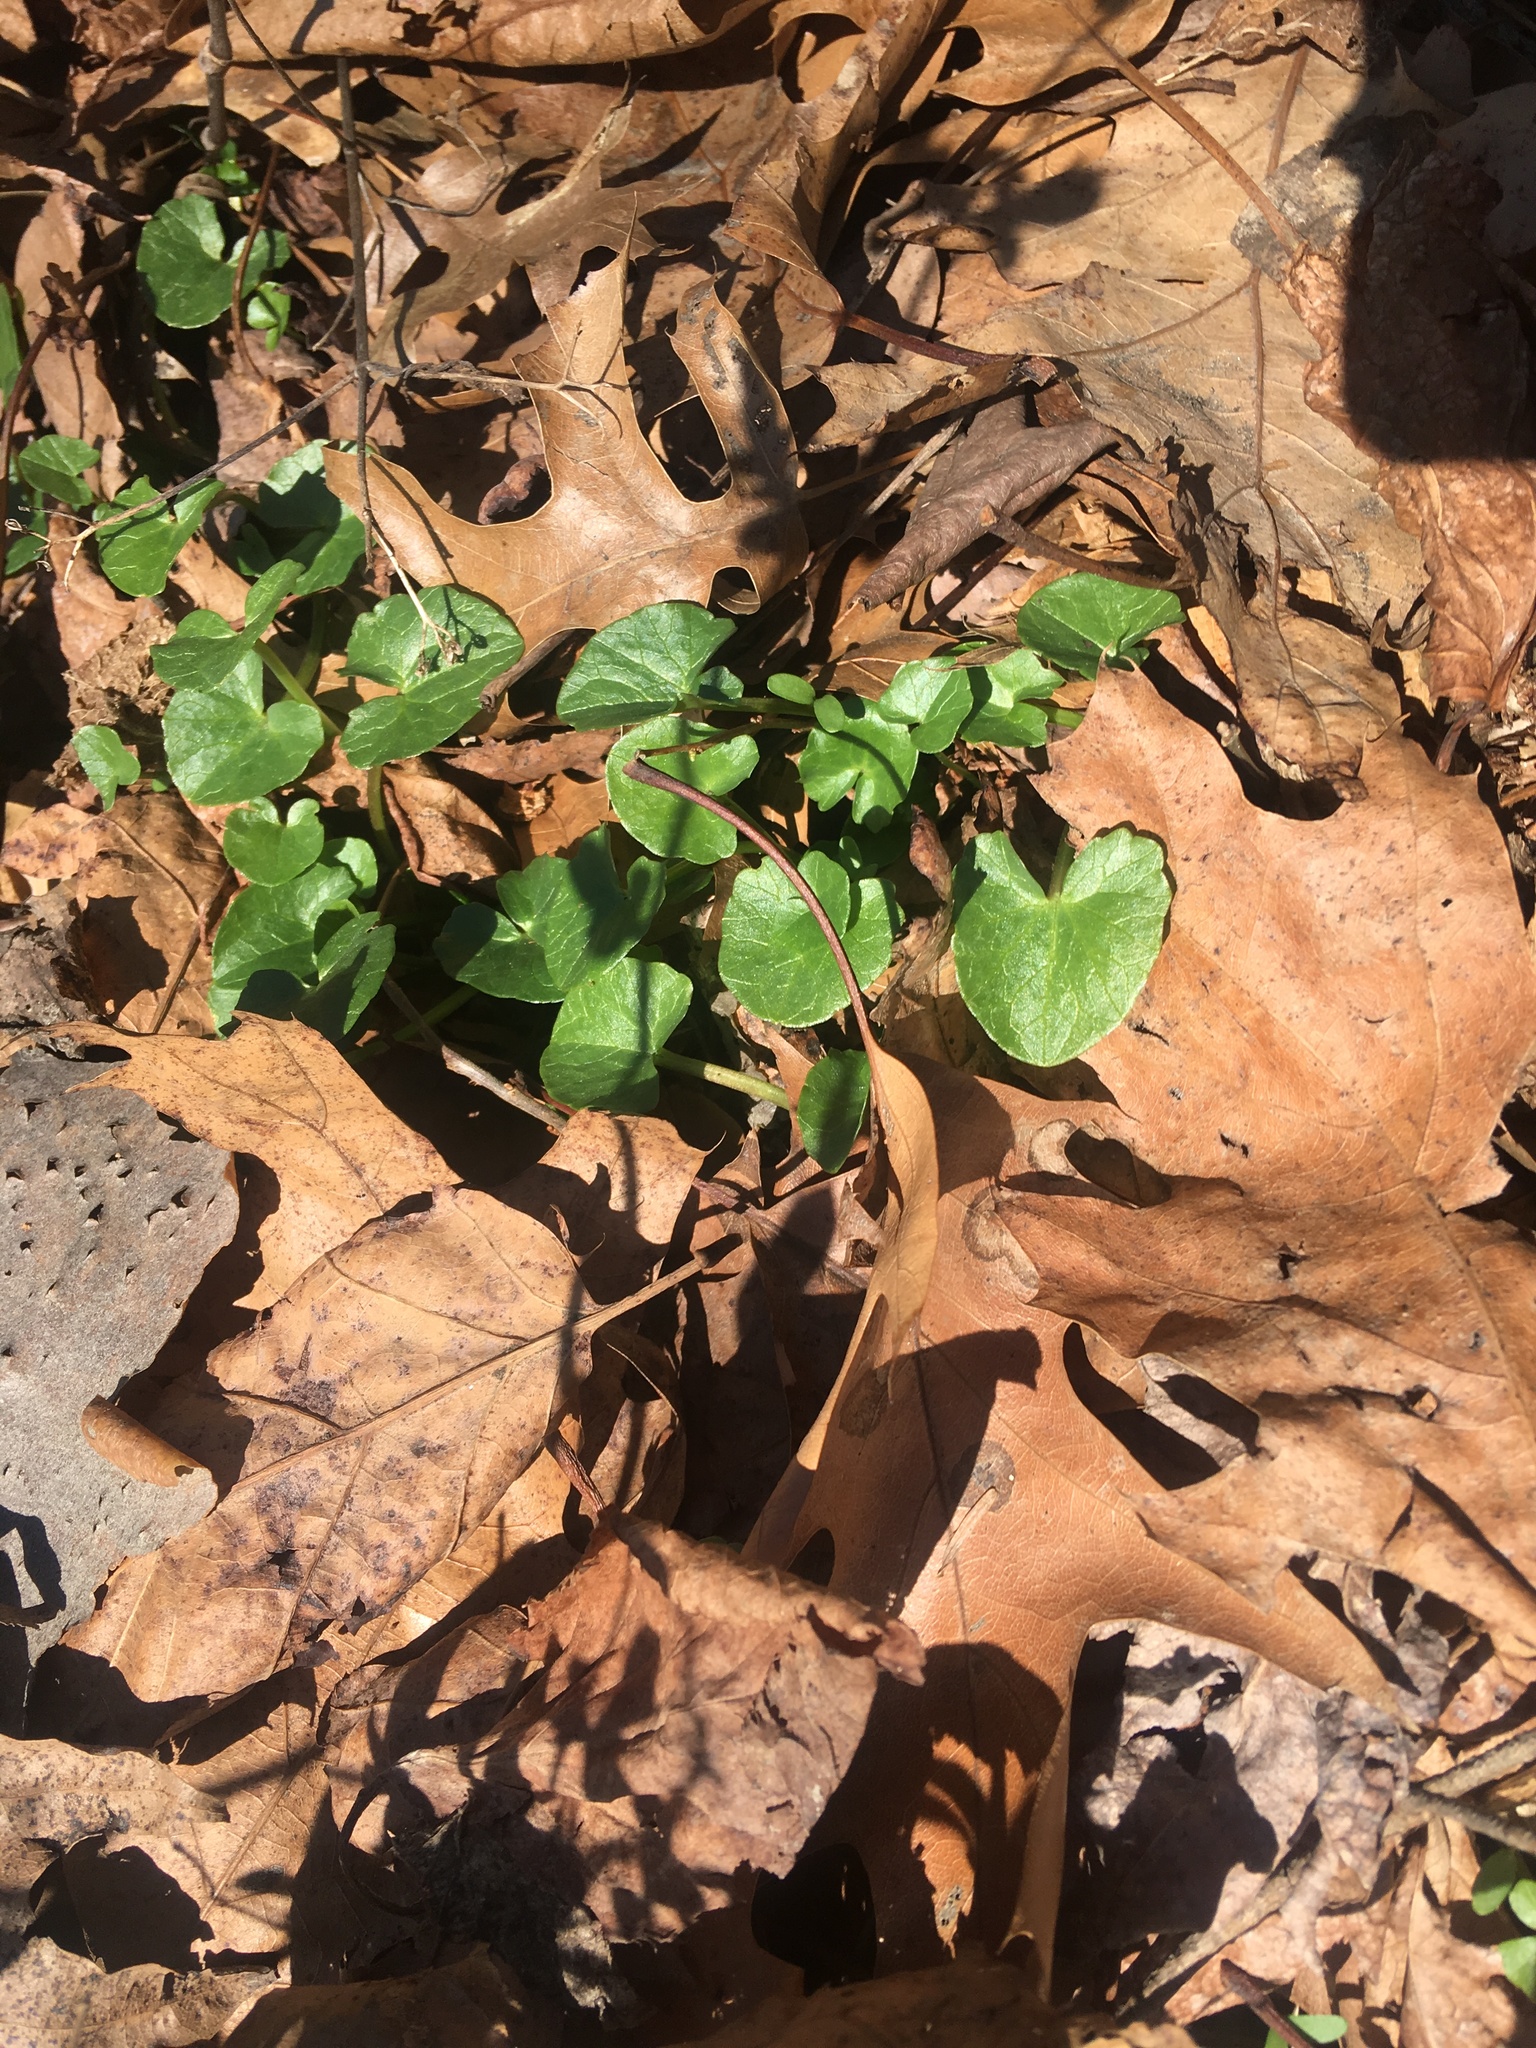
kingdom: Plantae
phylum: Tracheophyta
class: Magnoliopsida
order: Ranunculales
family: Ranunculaceae
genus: Ficaria
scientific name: Ficaria verna
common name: Lesser celandine
